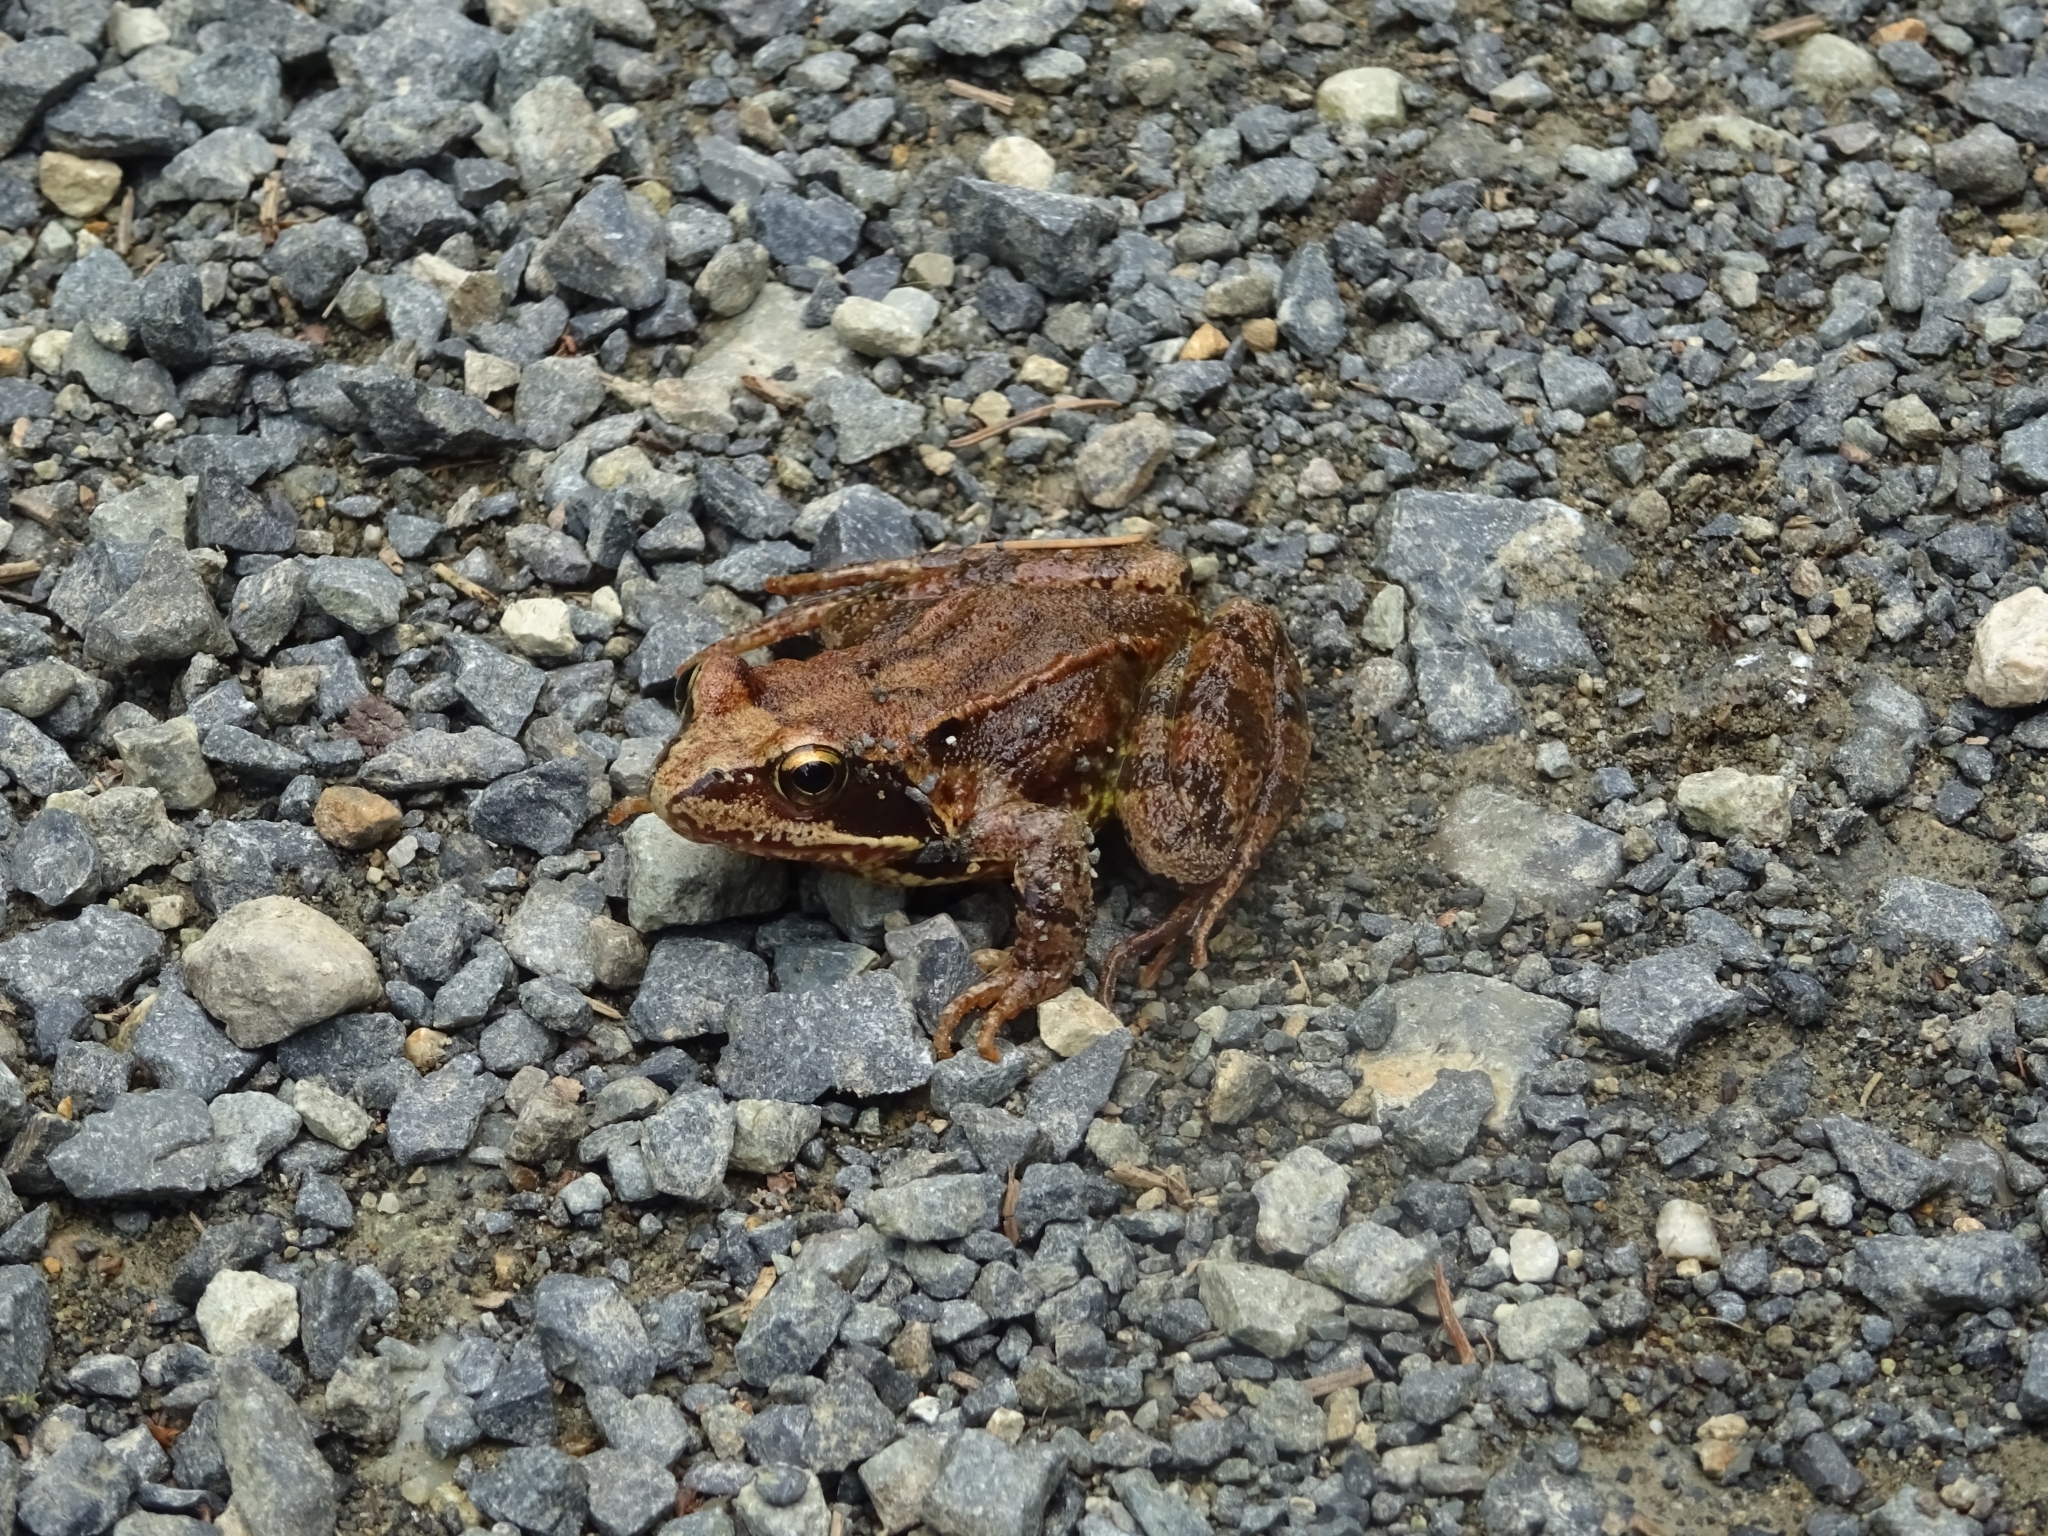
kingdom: Animalia
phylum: Chordata
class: Amphibia
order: Anura
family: Ranidae
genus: Rana
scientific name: Rana temporaria
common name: Common frog
